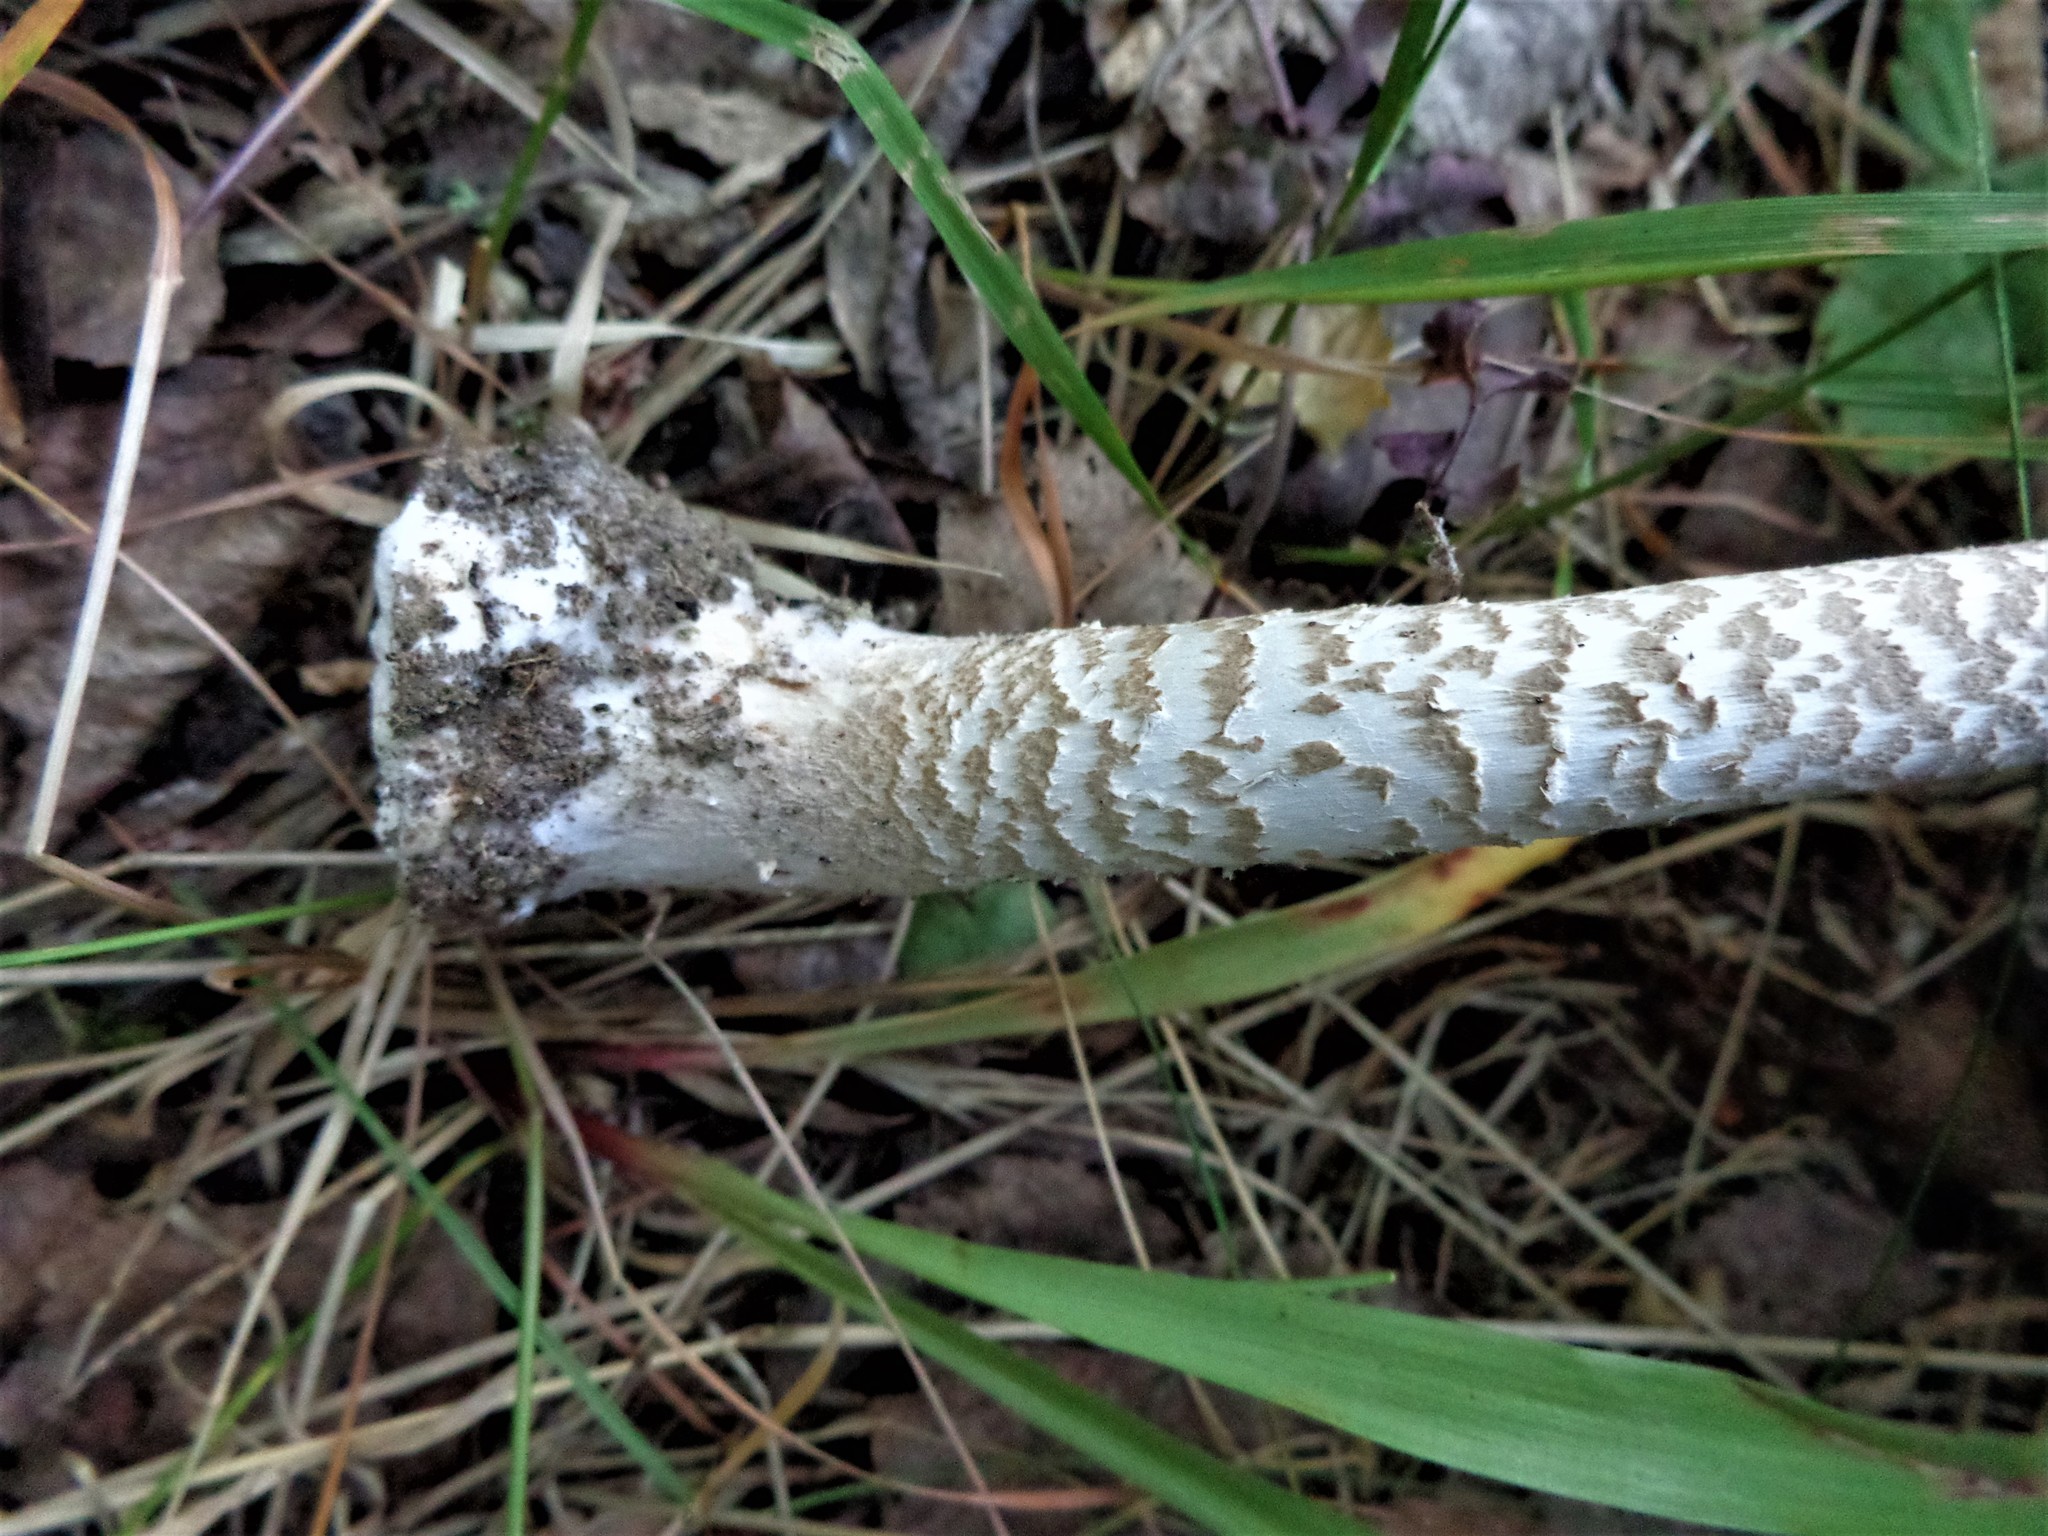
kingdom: Fungi
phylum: Basidiomycota
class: Agaricomycetes
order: Agaricales
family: Agaricaceae
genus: Macrolepiota
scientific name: Macrolepiota procera
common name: Parasol
